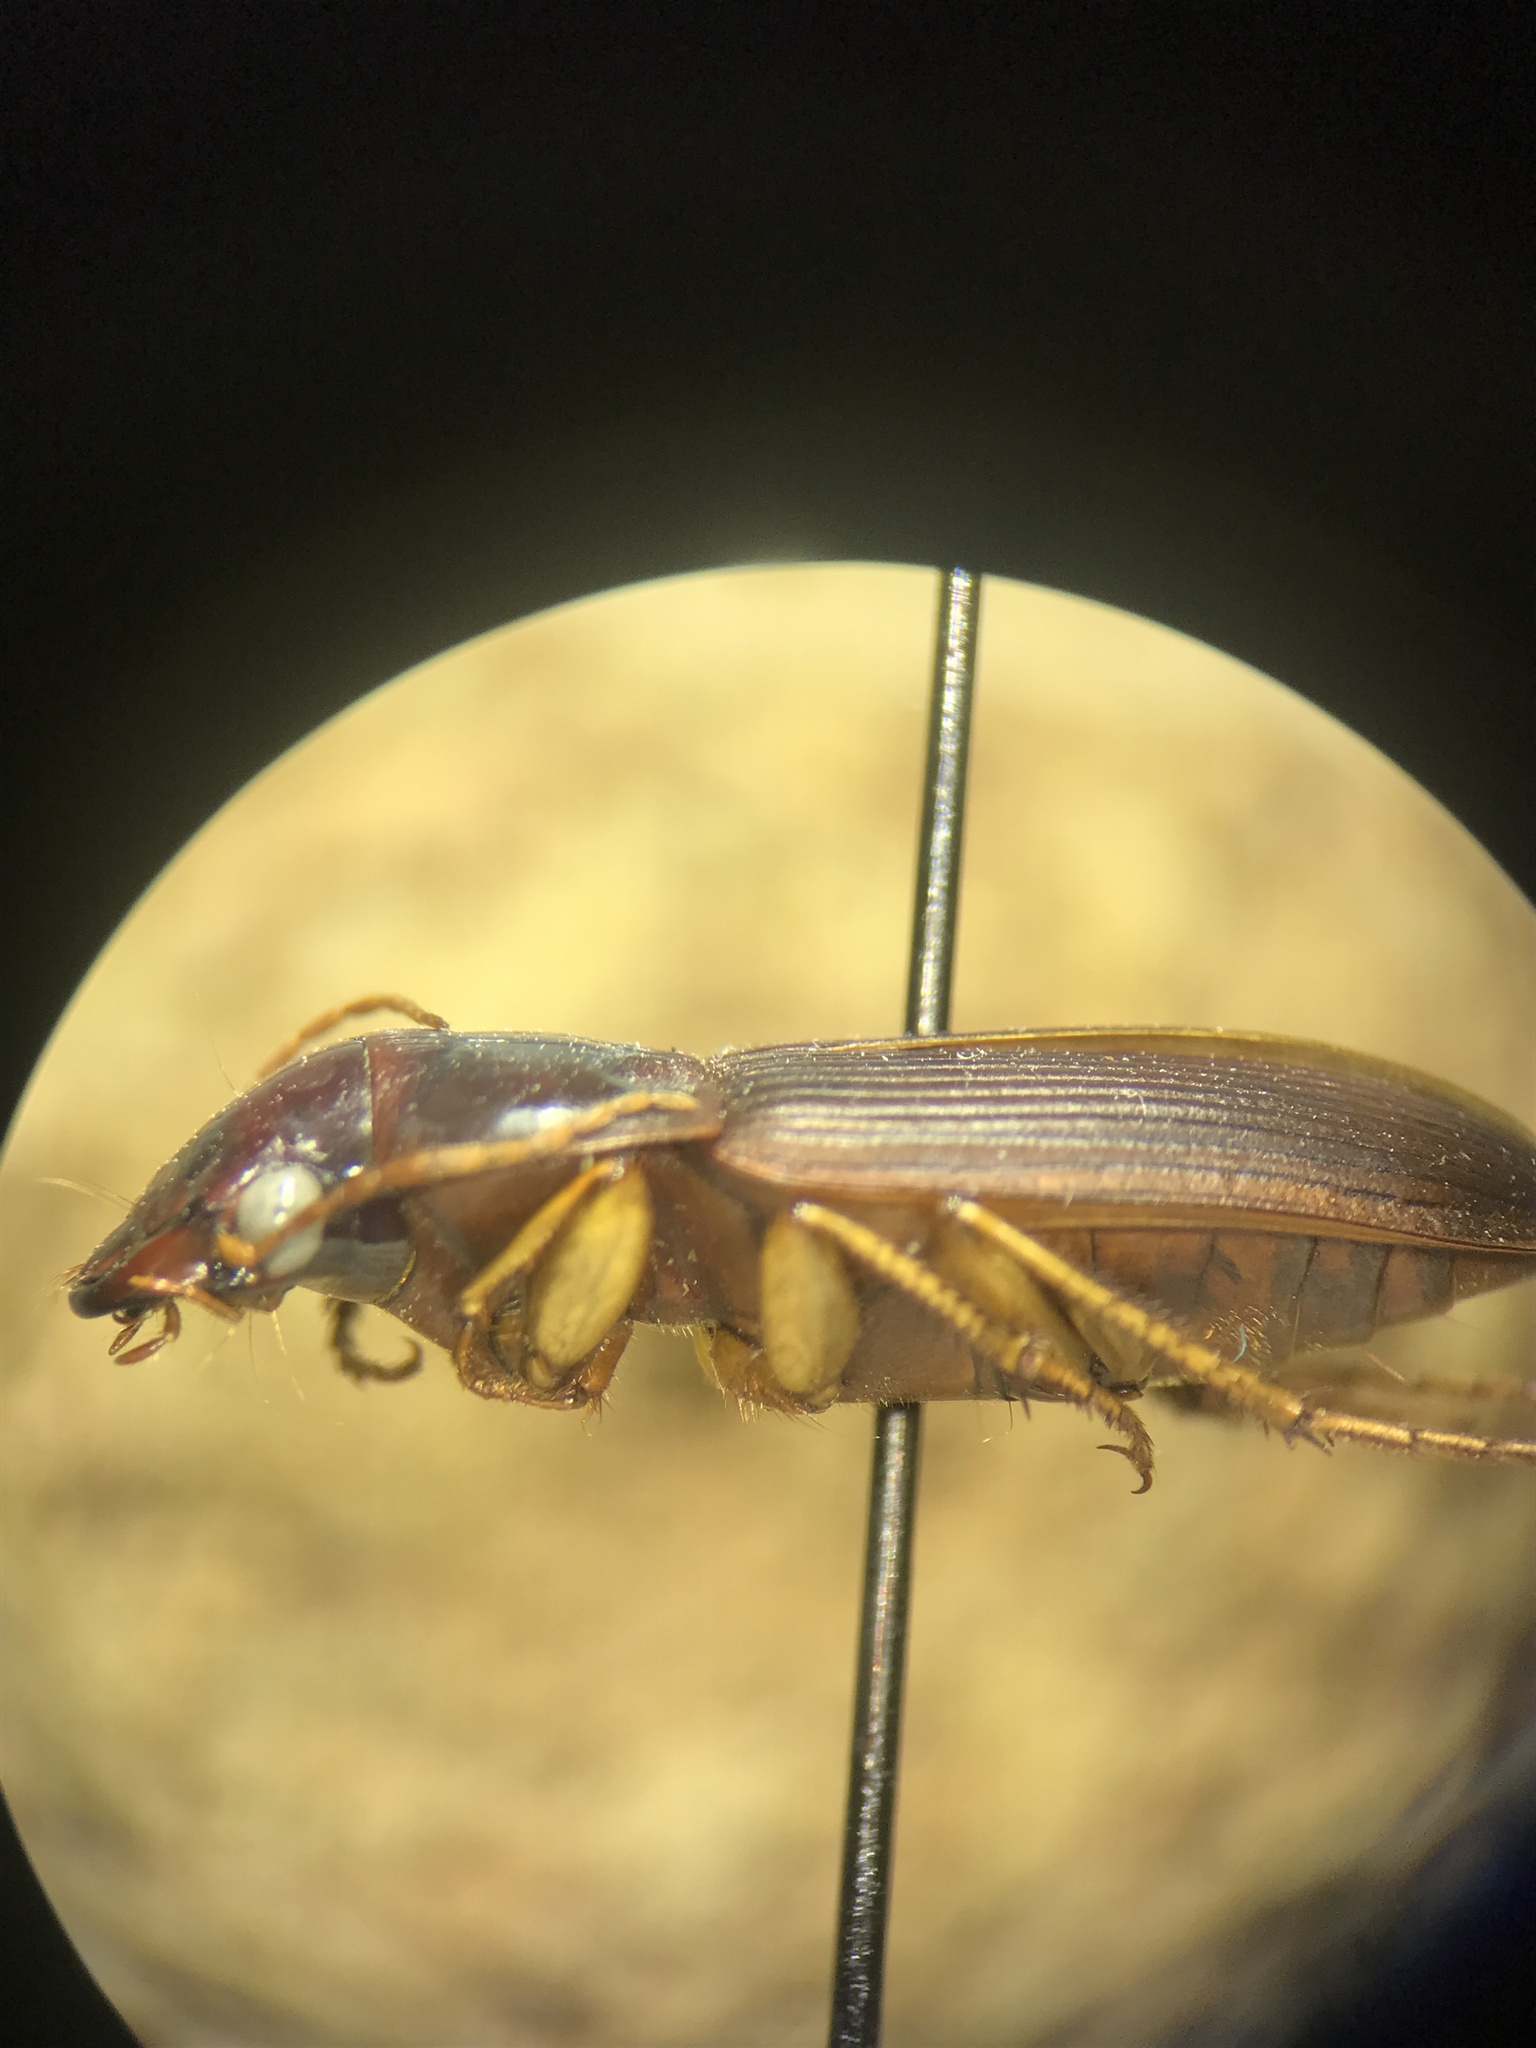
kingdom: Animalia
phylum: Arthropoda
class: Insecta
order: Coleoptera
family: Carabidae
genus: Harpalus
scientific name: Harpalus pensylvanicus
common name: Pennsylvania dingy ground beetle
